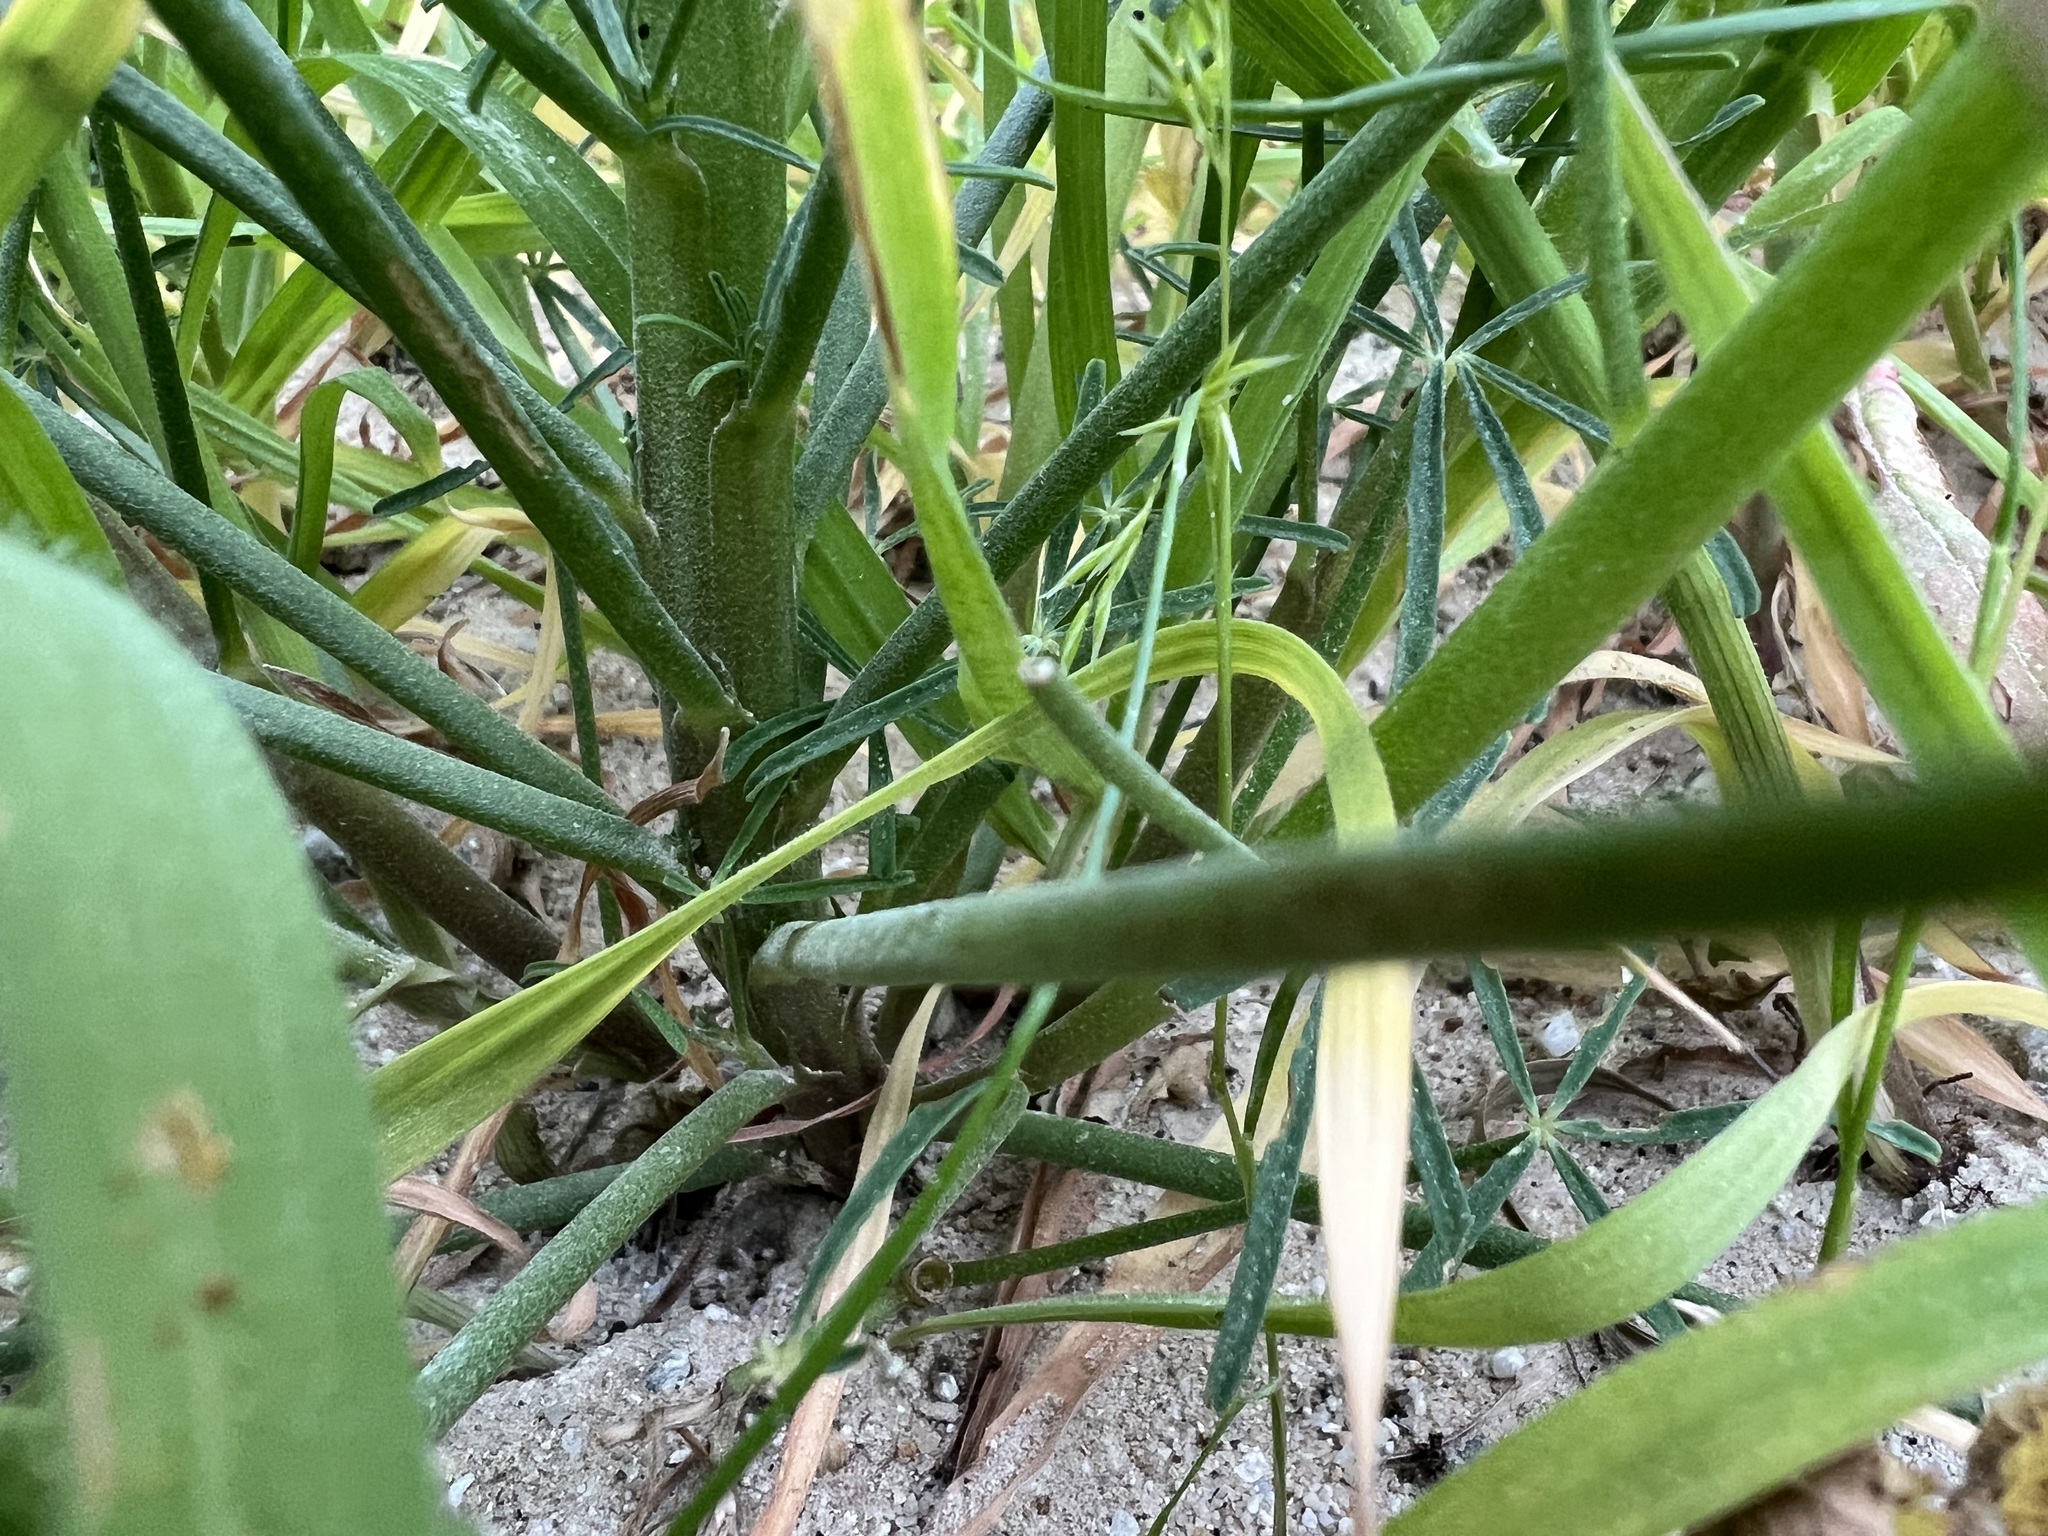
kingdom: Plantae
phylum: Tracheophyta
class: Magnoliopsida
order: Fabales
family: Fabaceae
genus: Lupinus
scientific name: Lupinus truncatus
